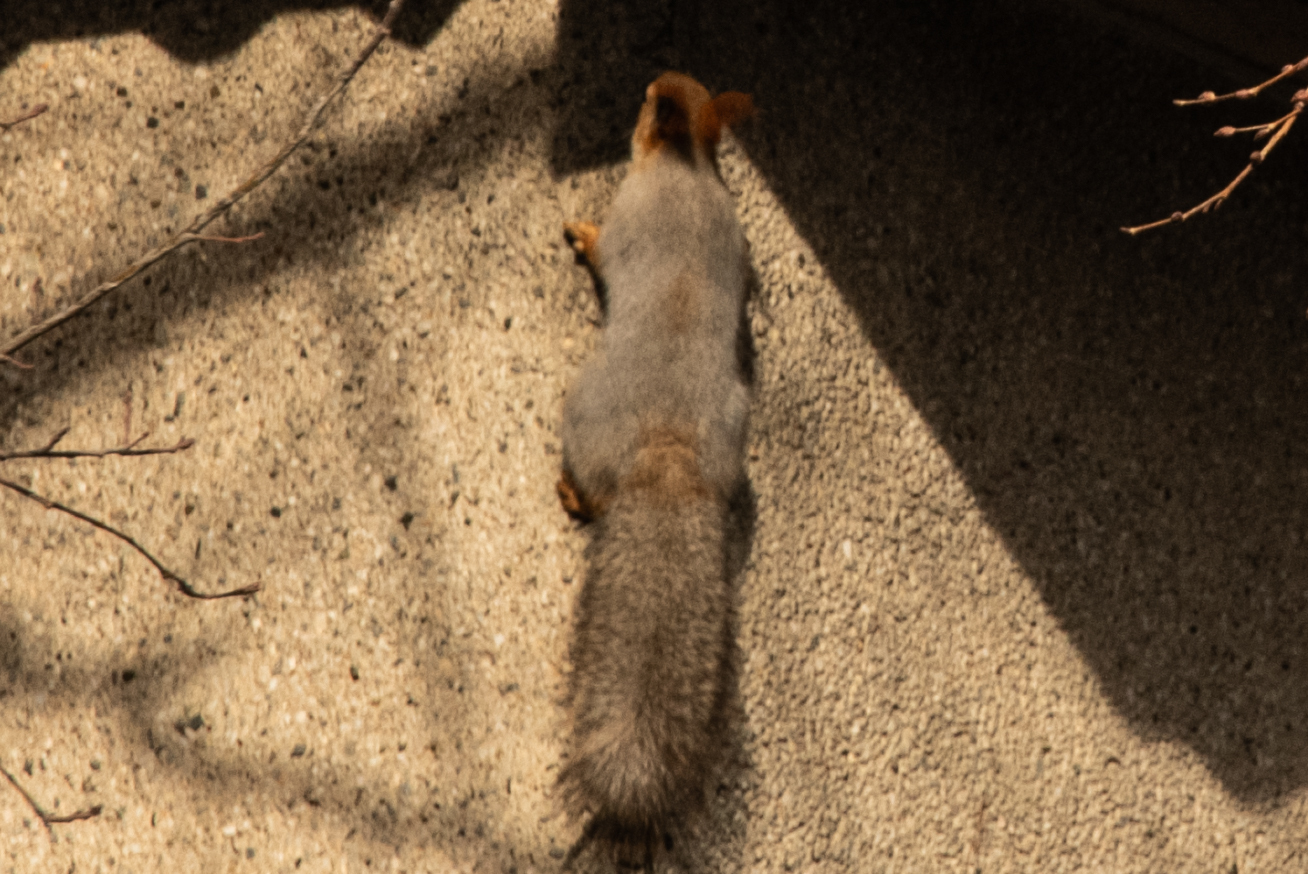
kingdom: Animalia
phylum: Chordata
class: Mammalia
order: Rodentia
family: Sciuridae
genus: Sciurus
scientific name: Sciurus vulgaris
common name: Eurasian red squirrel
